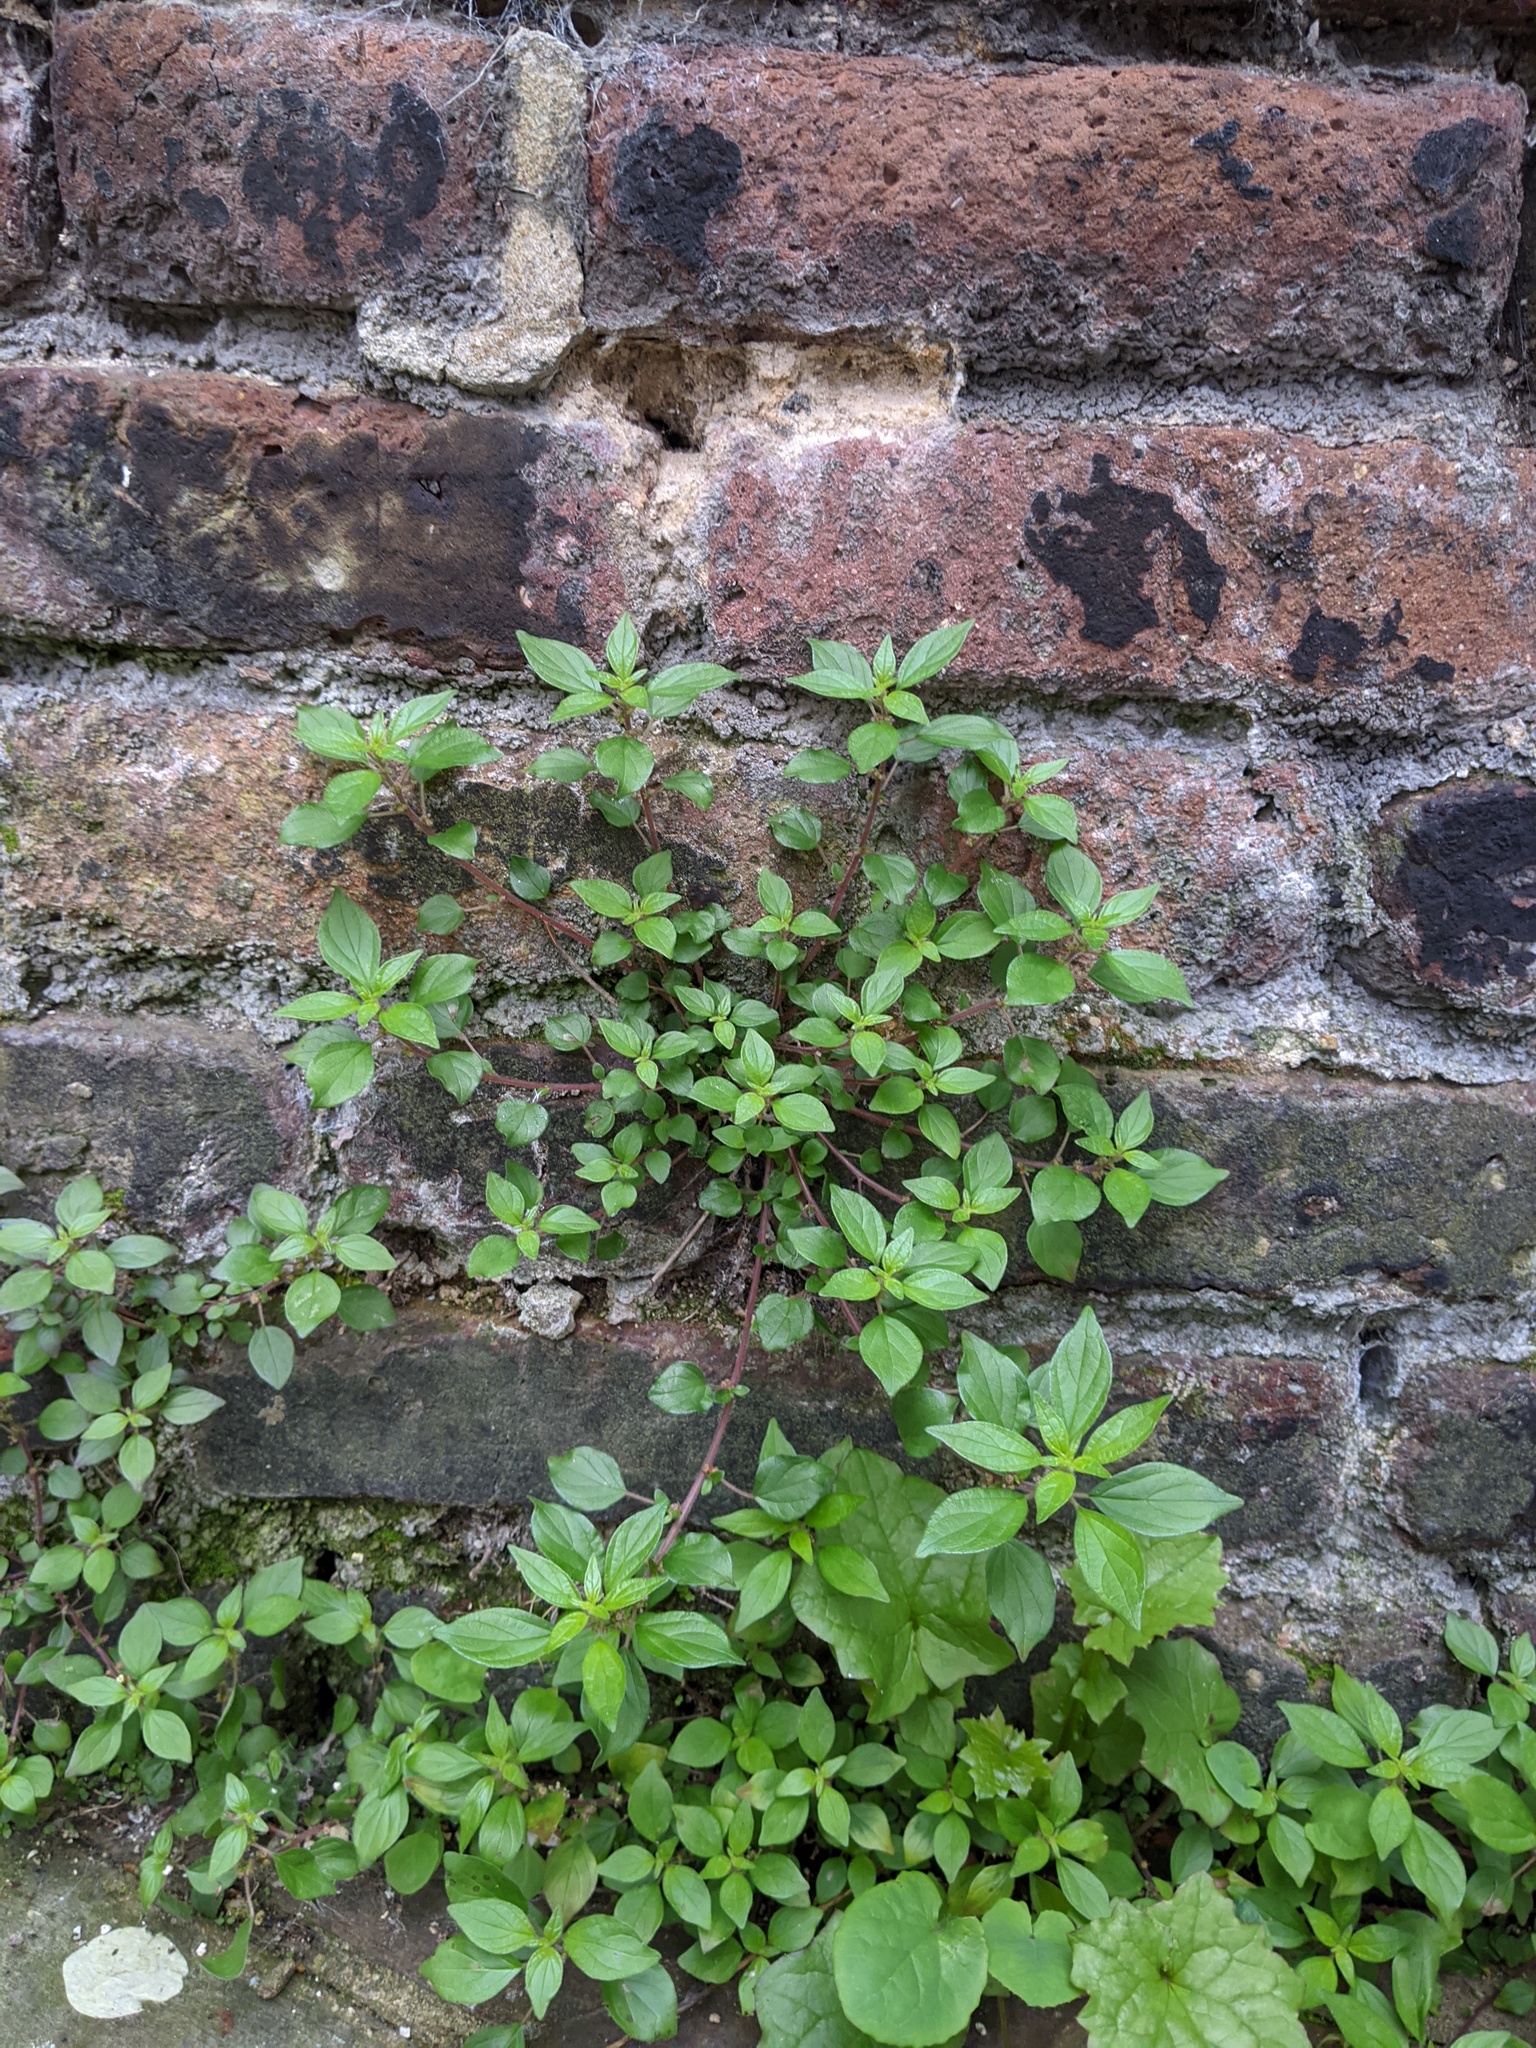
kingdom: Plantae
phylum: Tracheophyta
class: Magnoliopsida
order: Rosales
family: Urticaceae
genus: Parietaria
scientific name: Parietaria judaica
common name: Pellitory-of-the-wall
